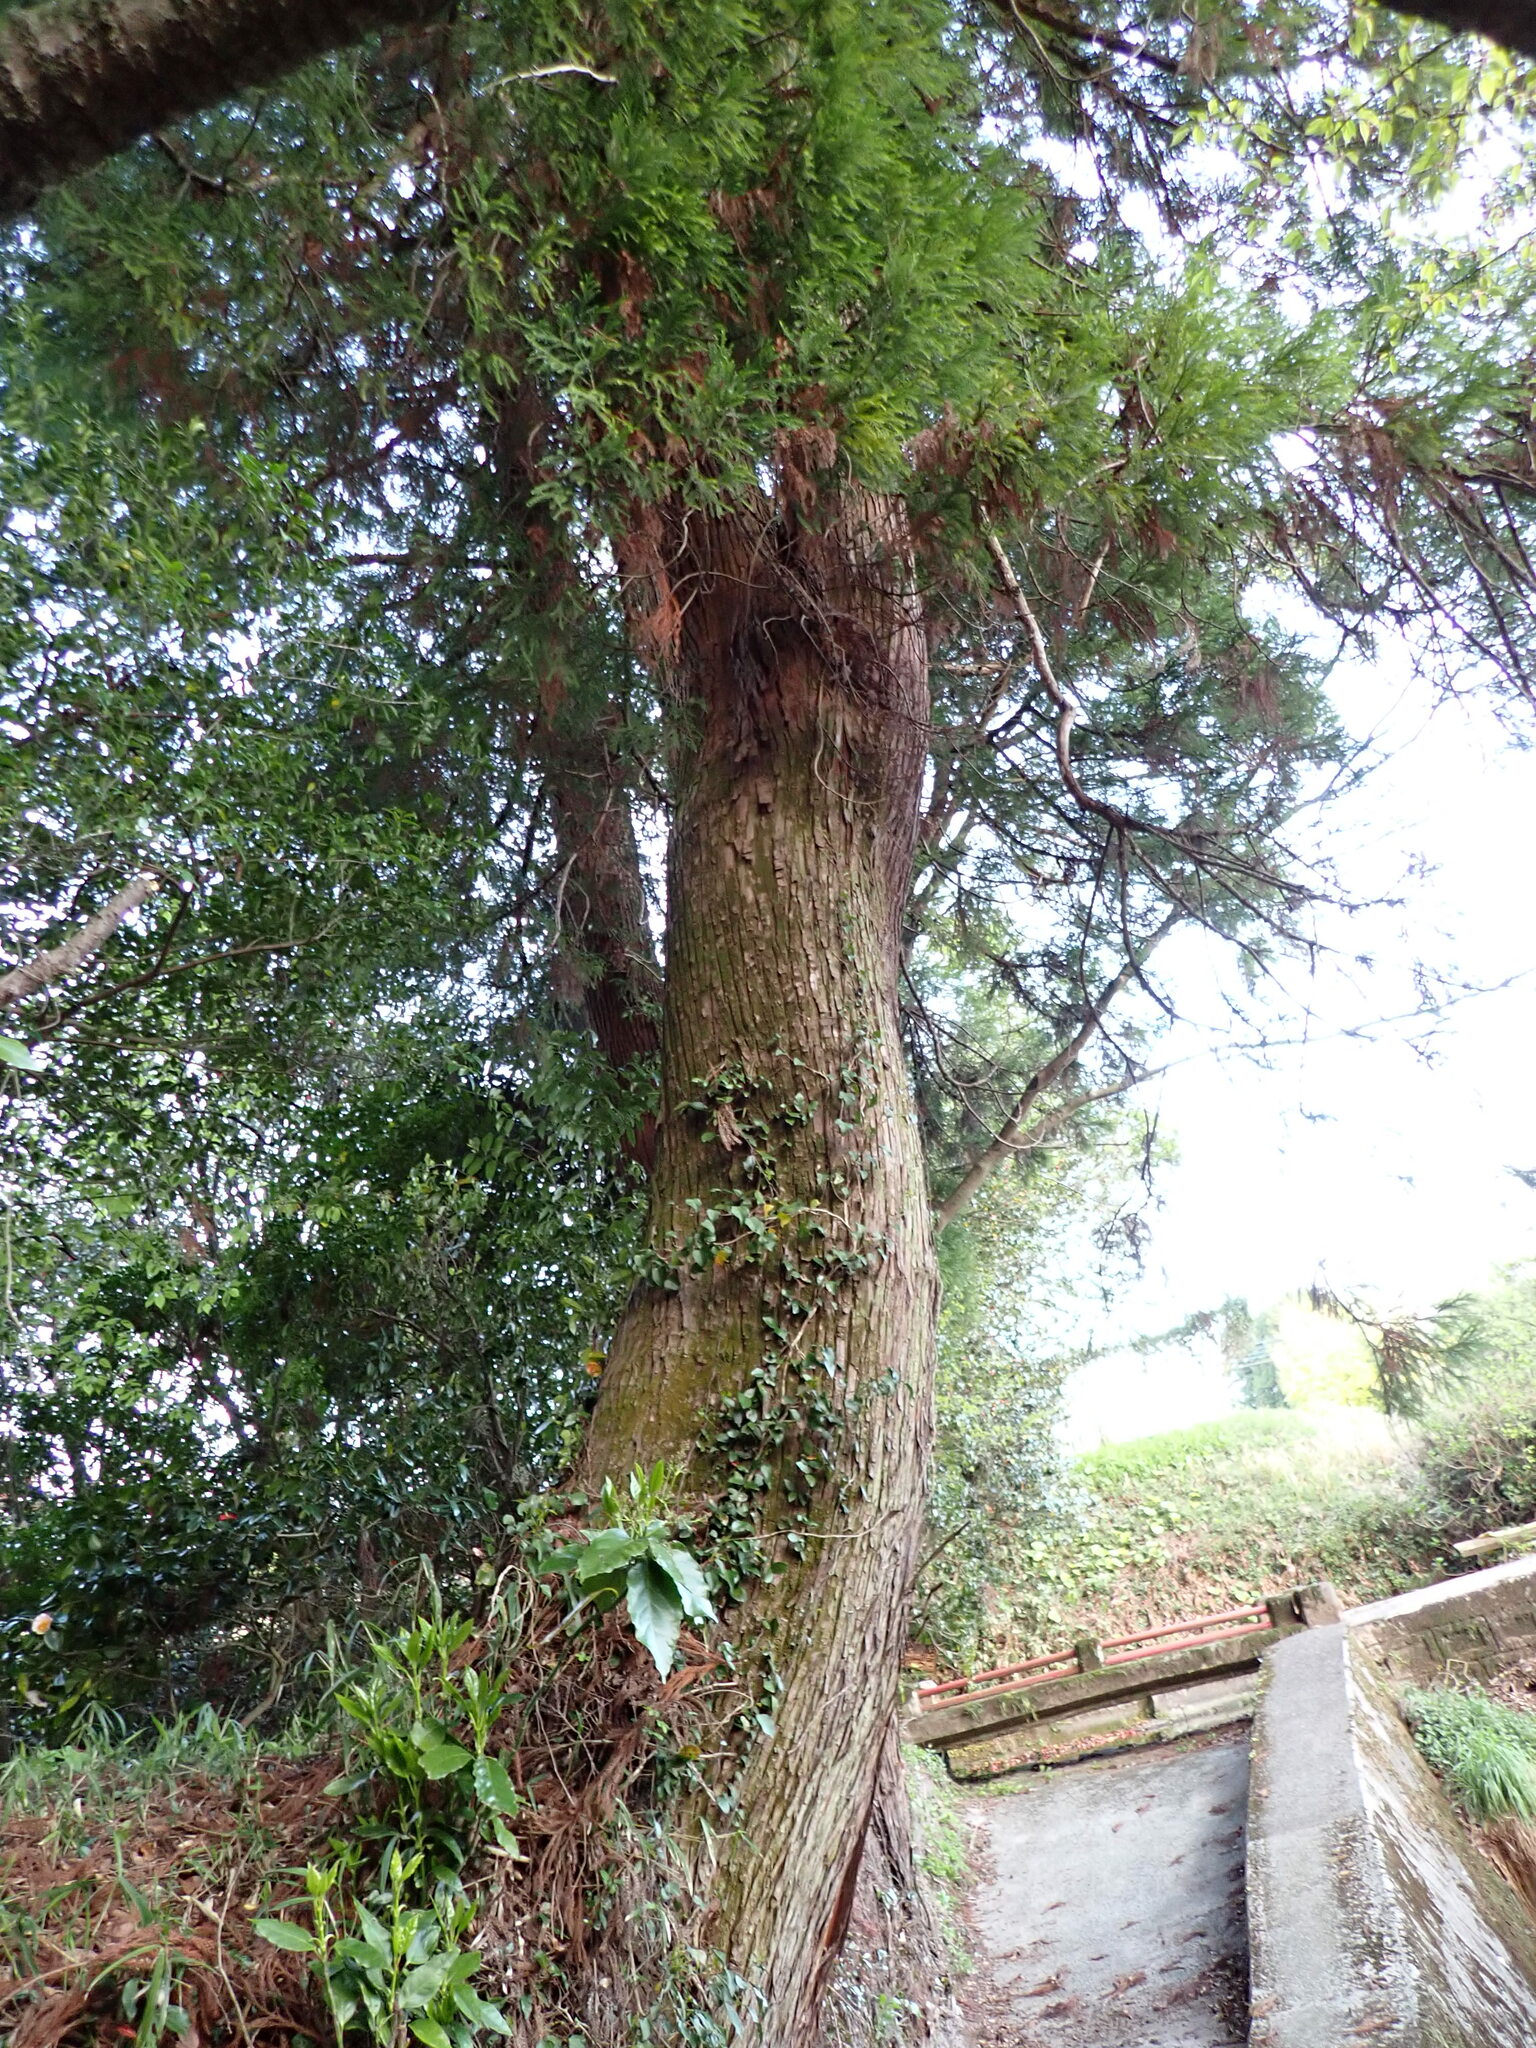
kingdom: Plantae
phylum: Tracheophyta
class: Pinopsida
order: Pinales
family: Cupressaceae
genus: Cryptomeria
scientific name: Cryptomeria japonica
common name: Japanese cedar
